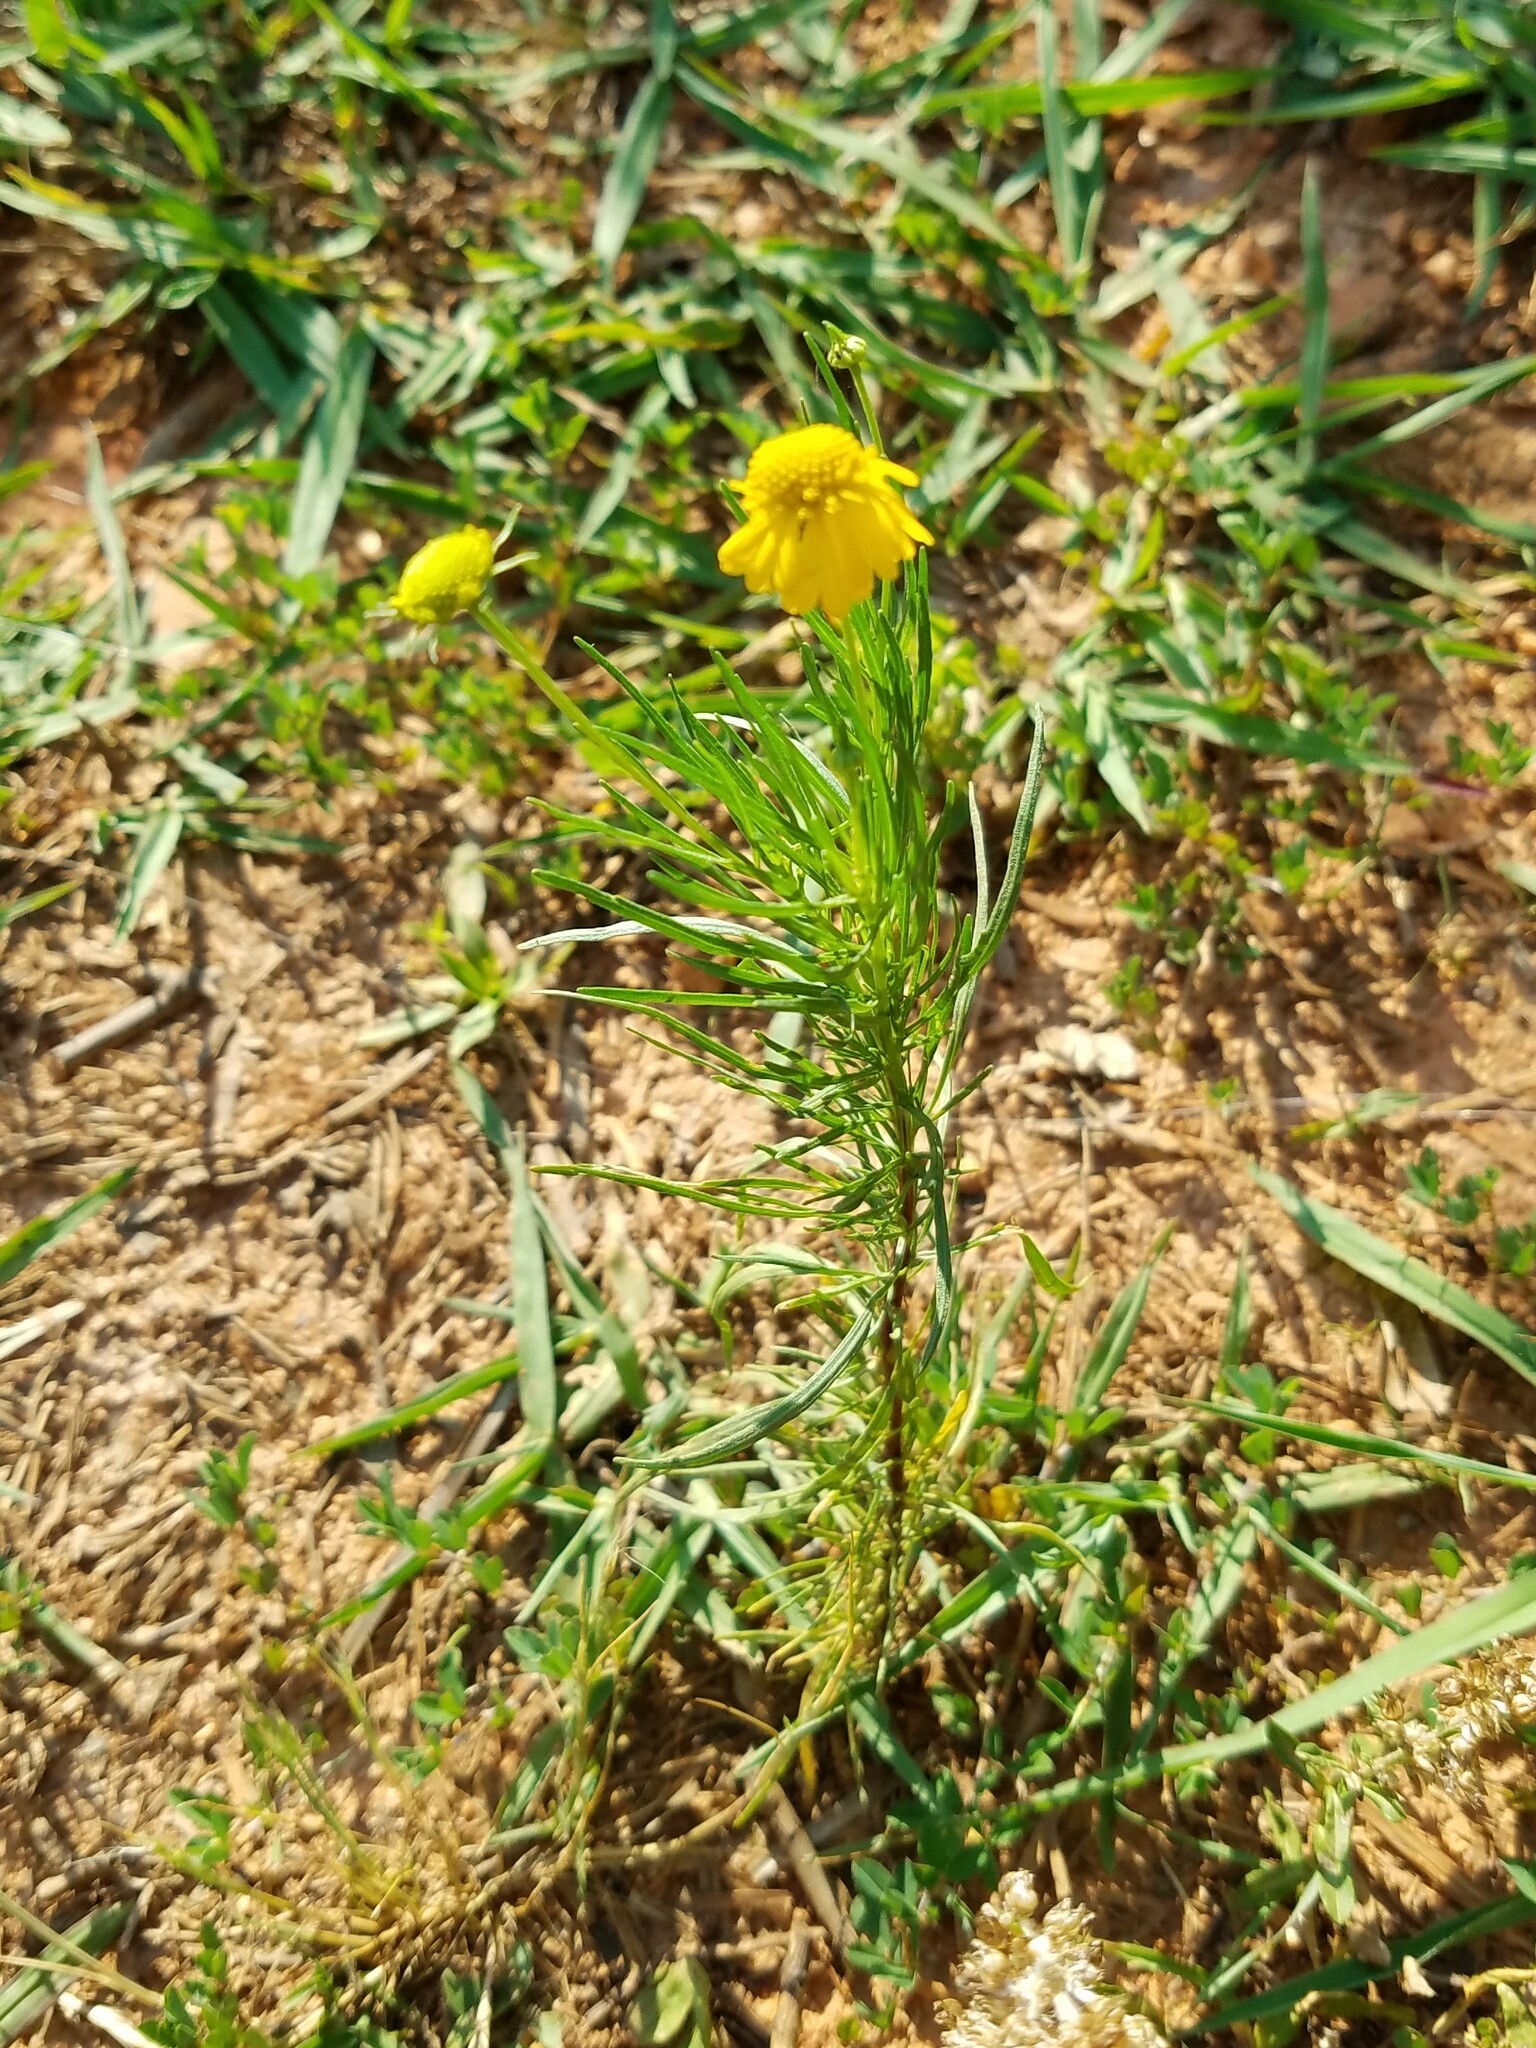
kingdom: Plantae
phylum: Tracheophyta
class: Magnoliopsida
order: Asterales
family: Asteraceae
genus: Helenium
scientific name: Helenium amarum
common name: Bitter sneezeweed
